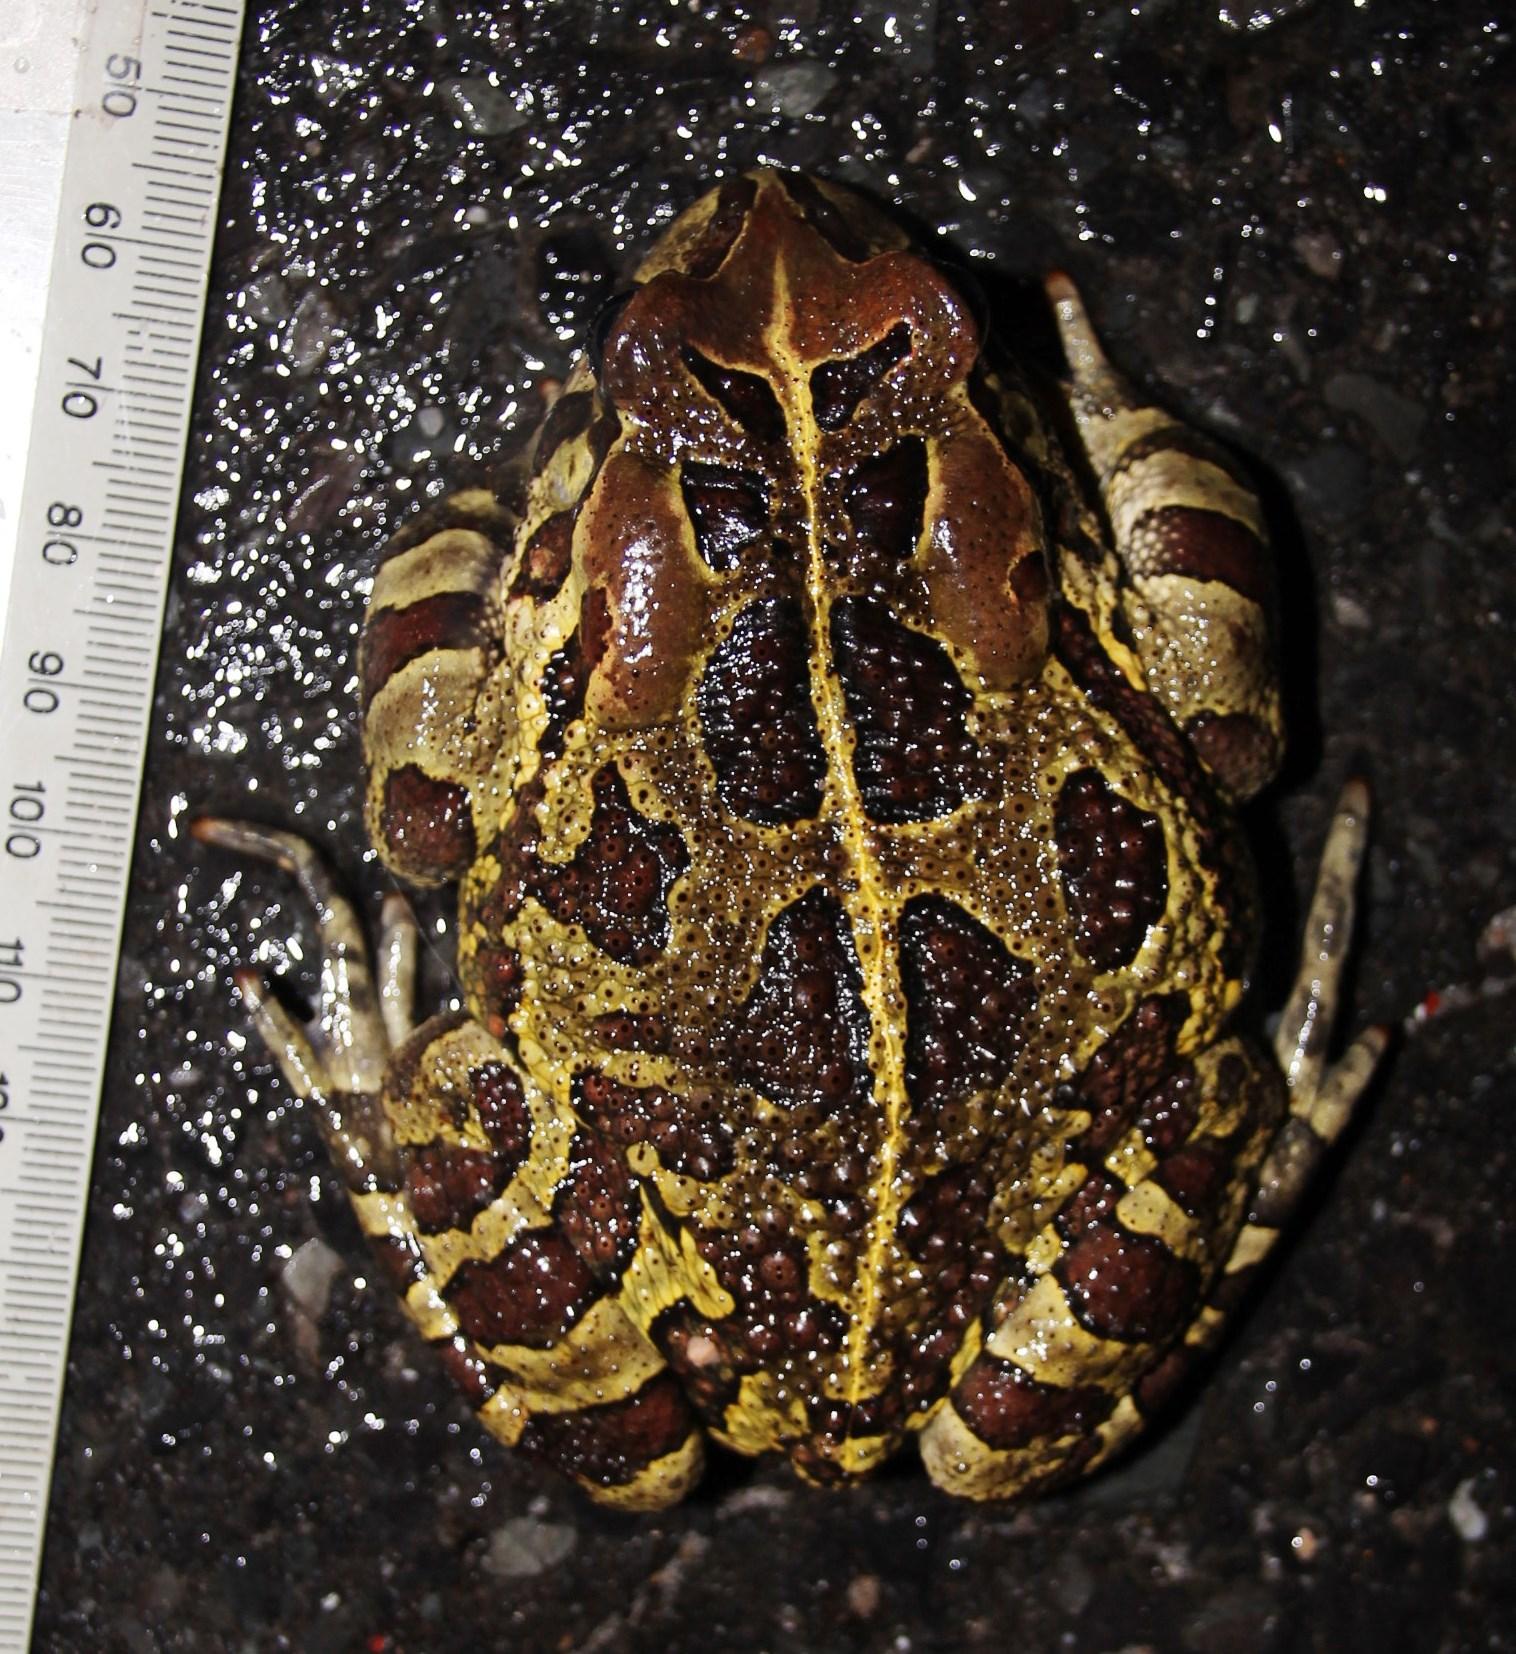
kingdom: Animalia
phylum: Chordata
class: Amphibia
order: Anura
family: Bufonidae
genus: Sclerophrys
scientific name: Sclerophrys pantherina
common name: Panther toad
